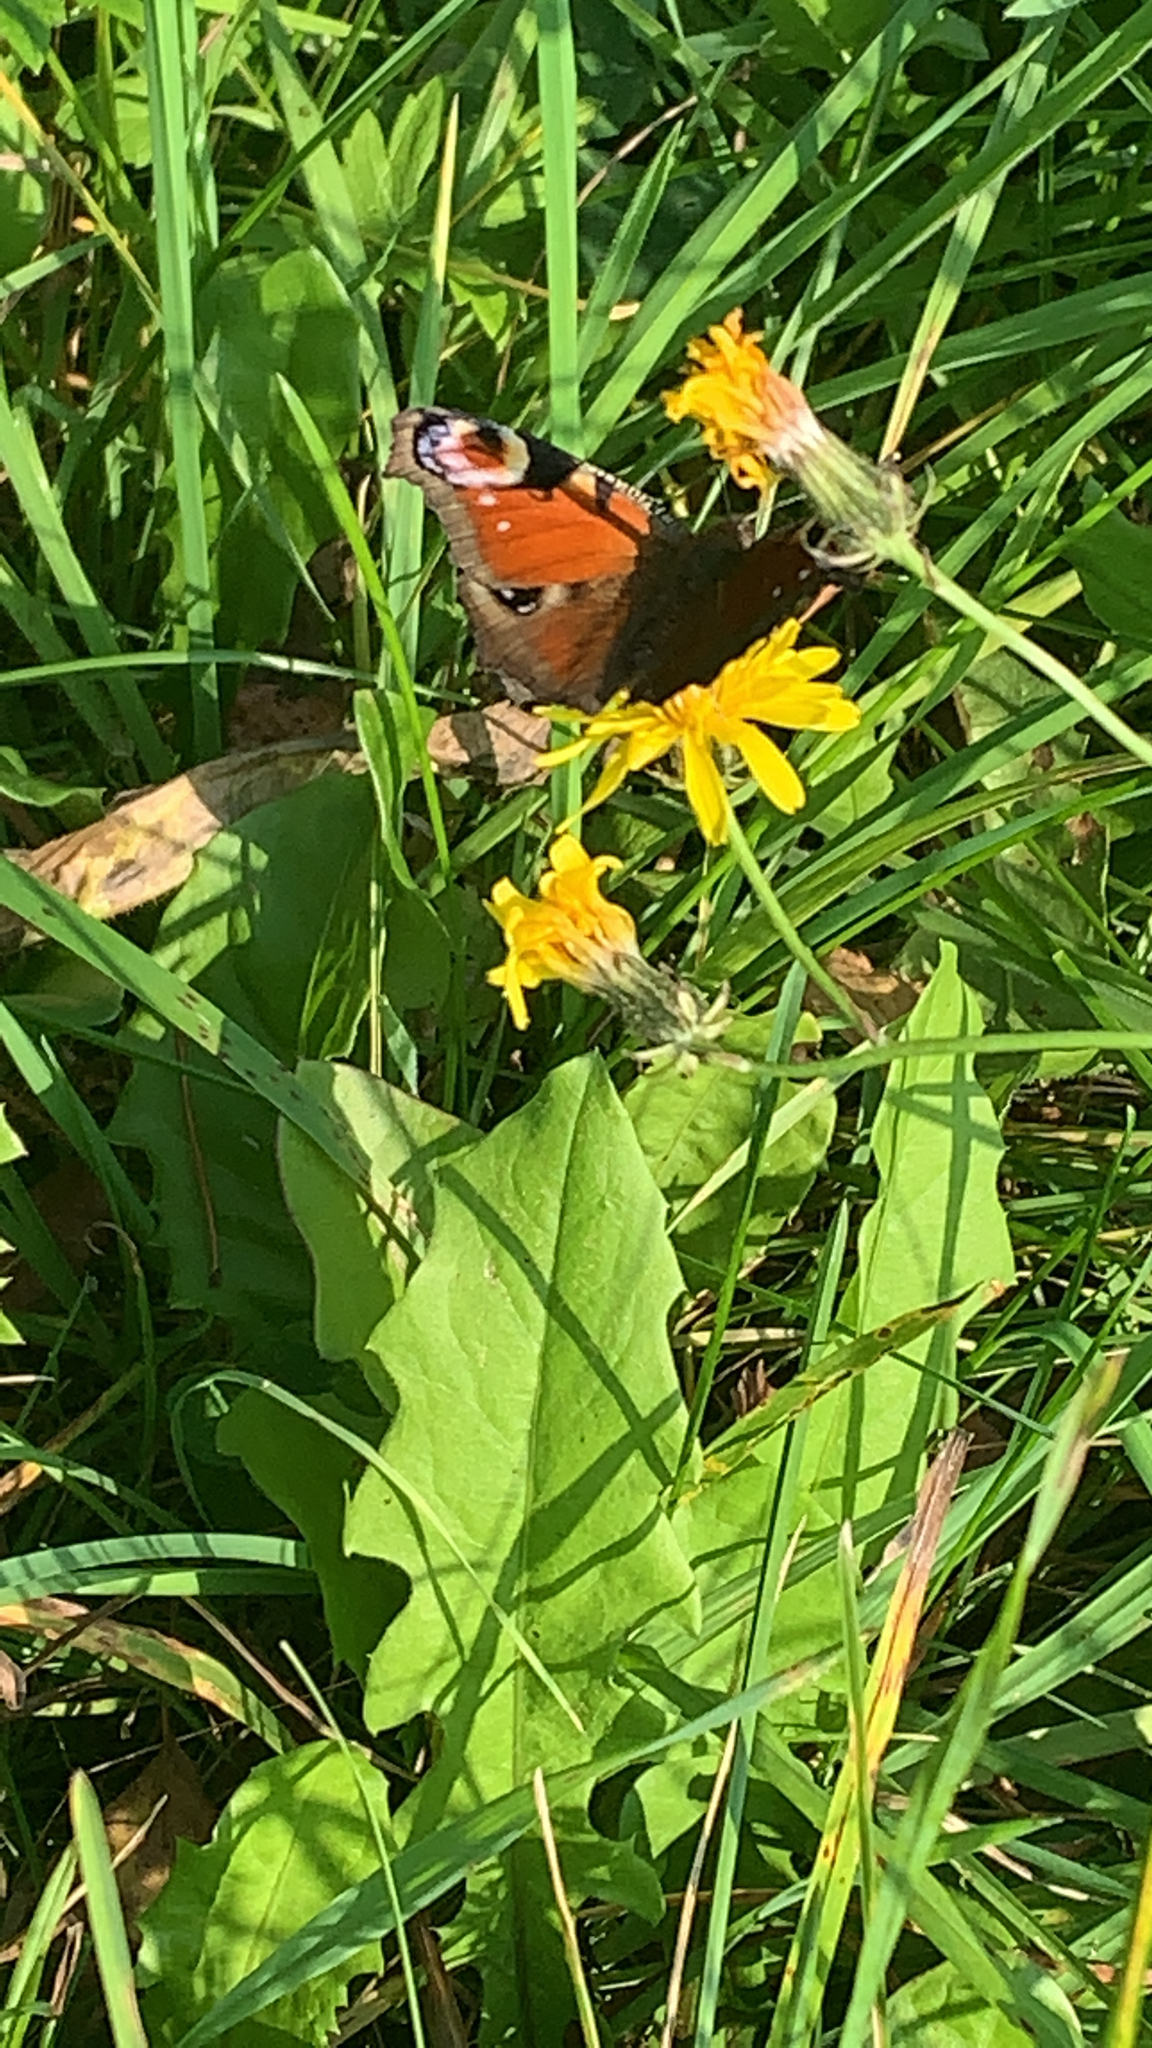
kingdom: Animalia
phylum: Arthropoda
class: Insecta
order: Lepidoptera
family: Nymphalidae
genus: Aglais
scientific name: Aglais io
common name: Peacock
